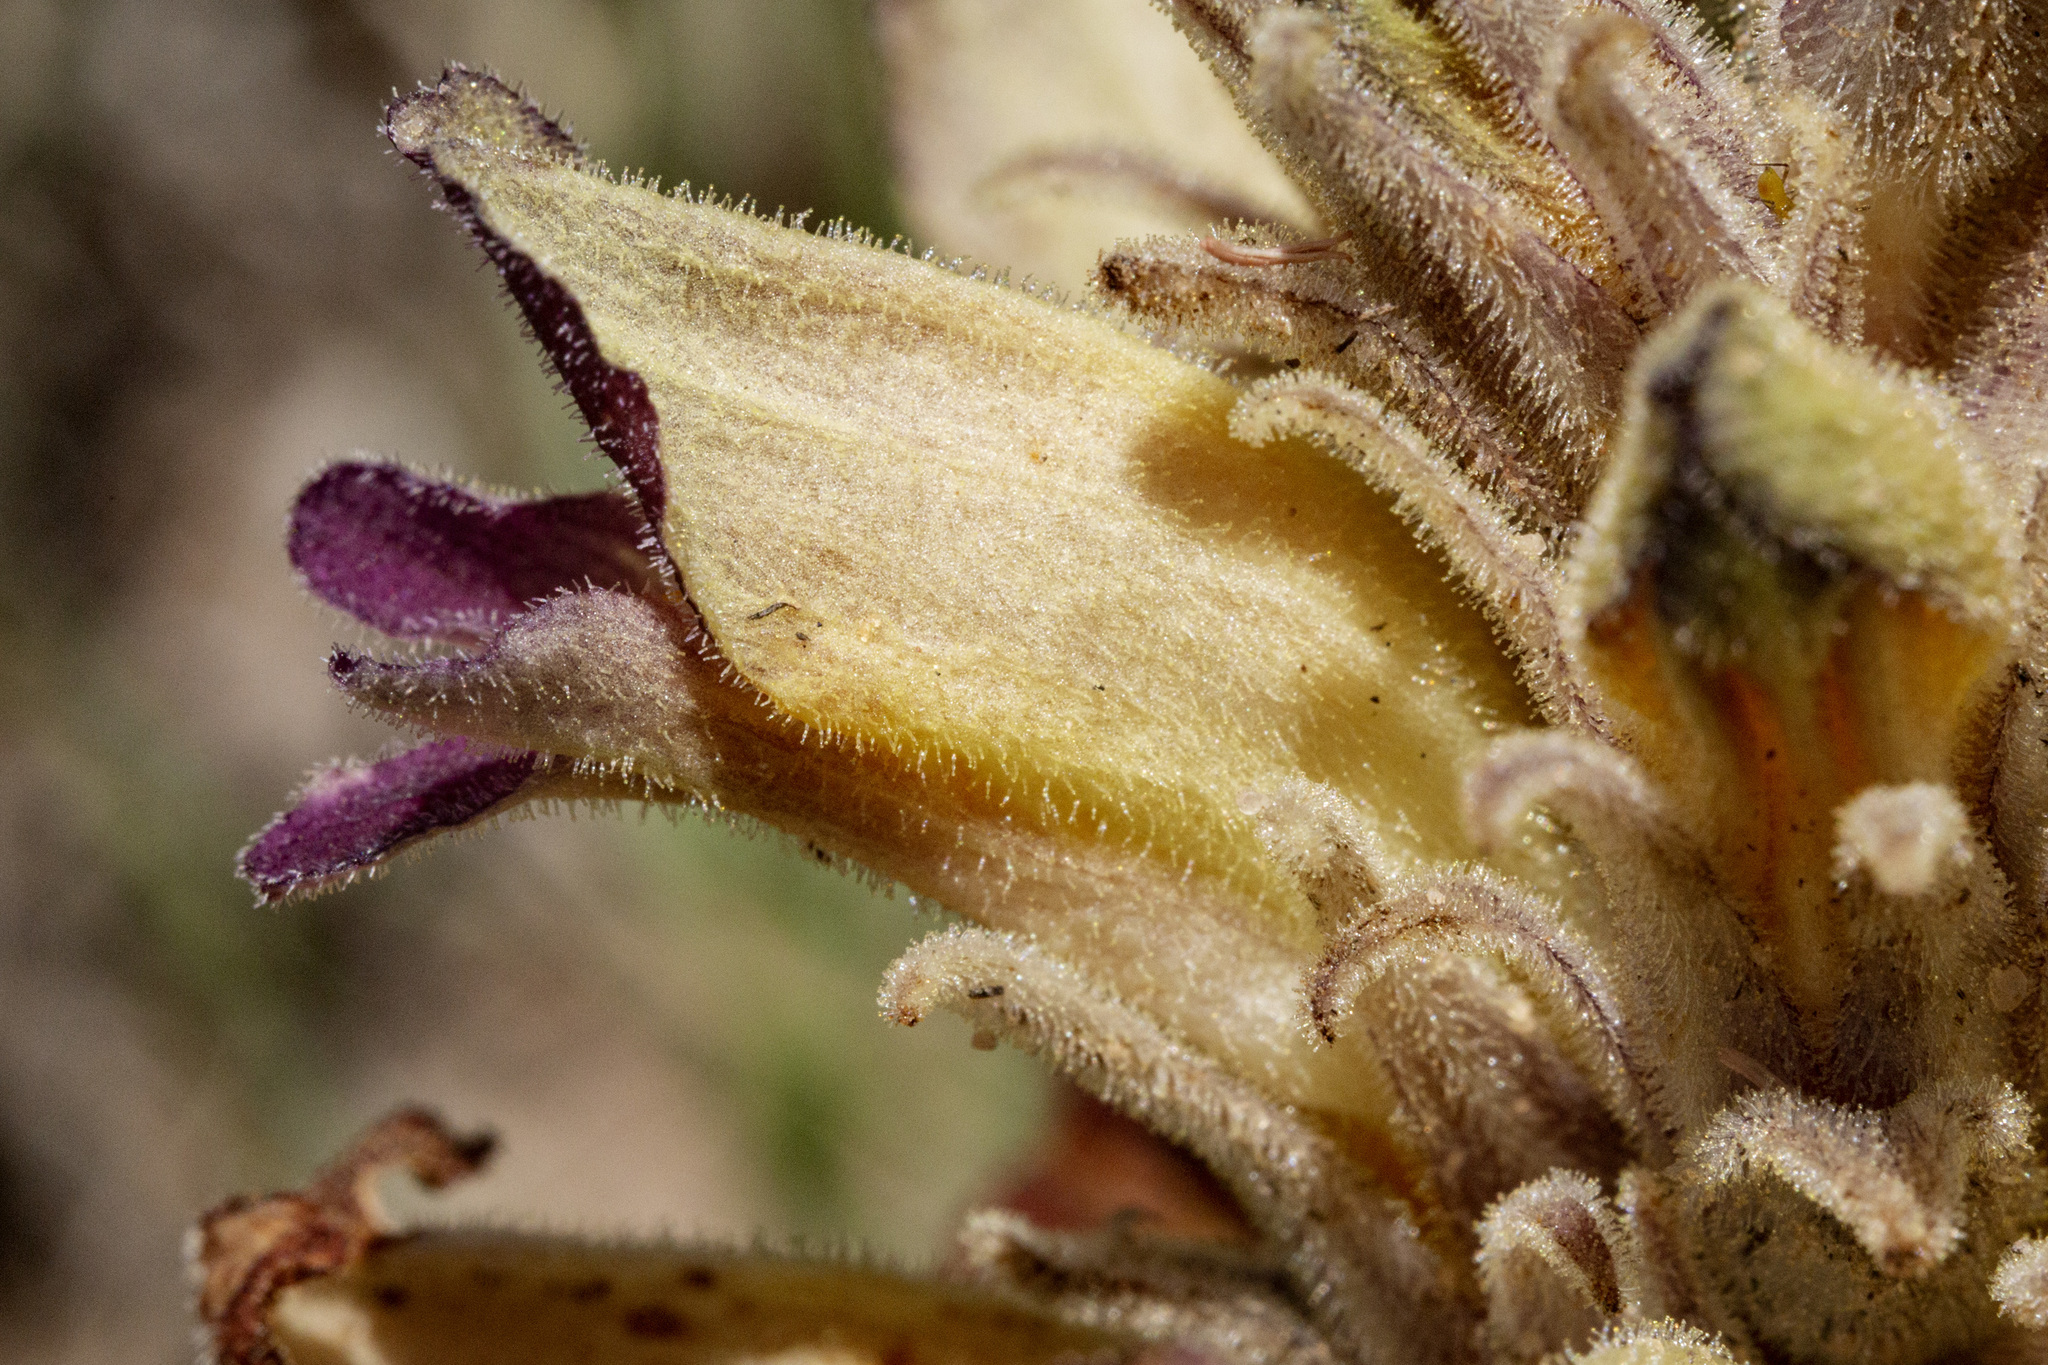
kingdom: Plantae
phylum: Tracheophyta
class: Magnoliopsida
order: Lamiales
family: Orobanchaceae
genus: Aphyllon
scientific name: Aphyllon multiflorum
